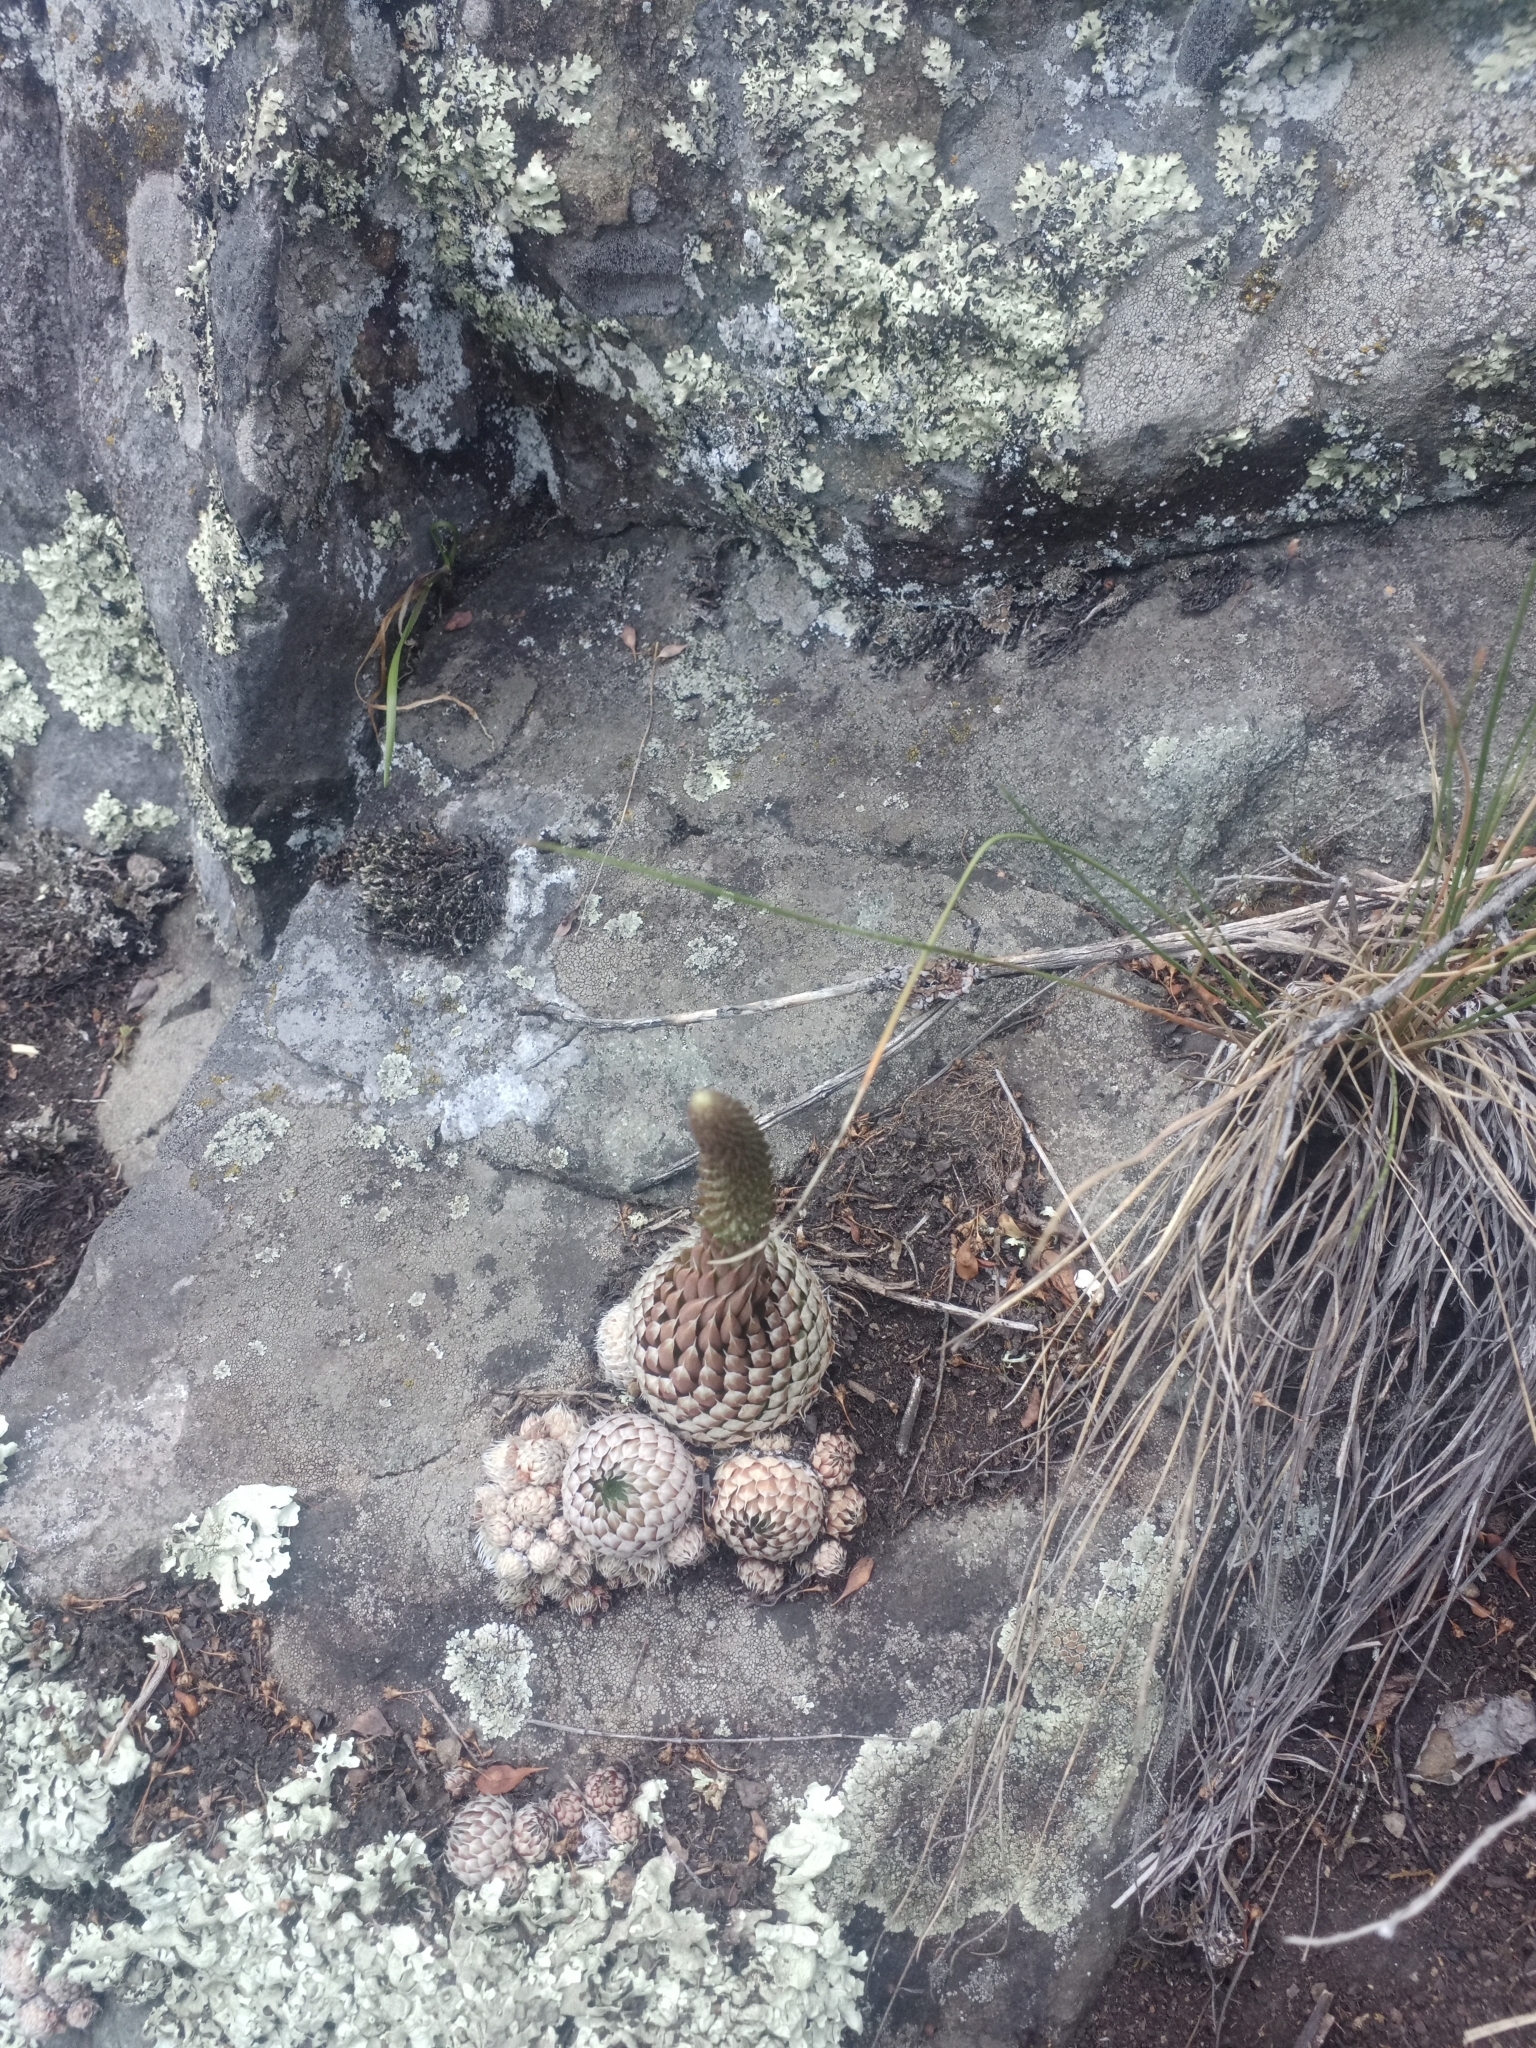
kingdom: Plantae
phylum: Tracheophyta
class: Magnoliopsida
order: Saxifragales
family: Crassulaceae
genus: Orostachys
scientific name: Orostachys spinosa
